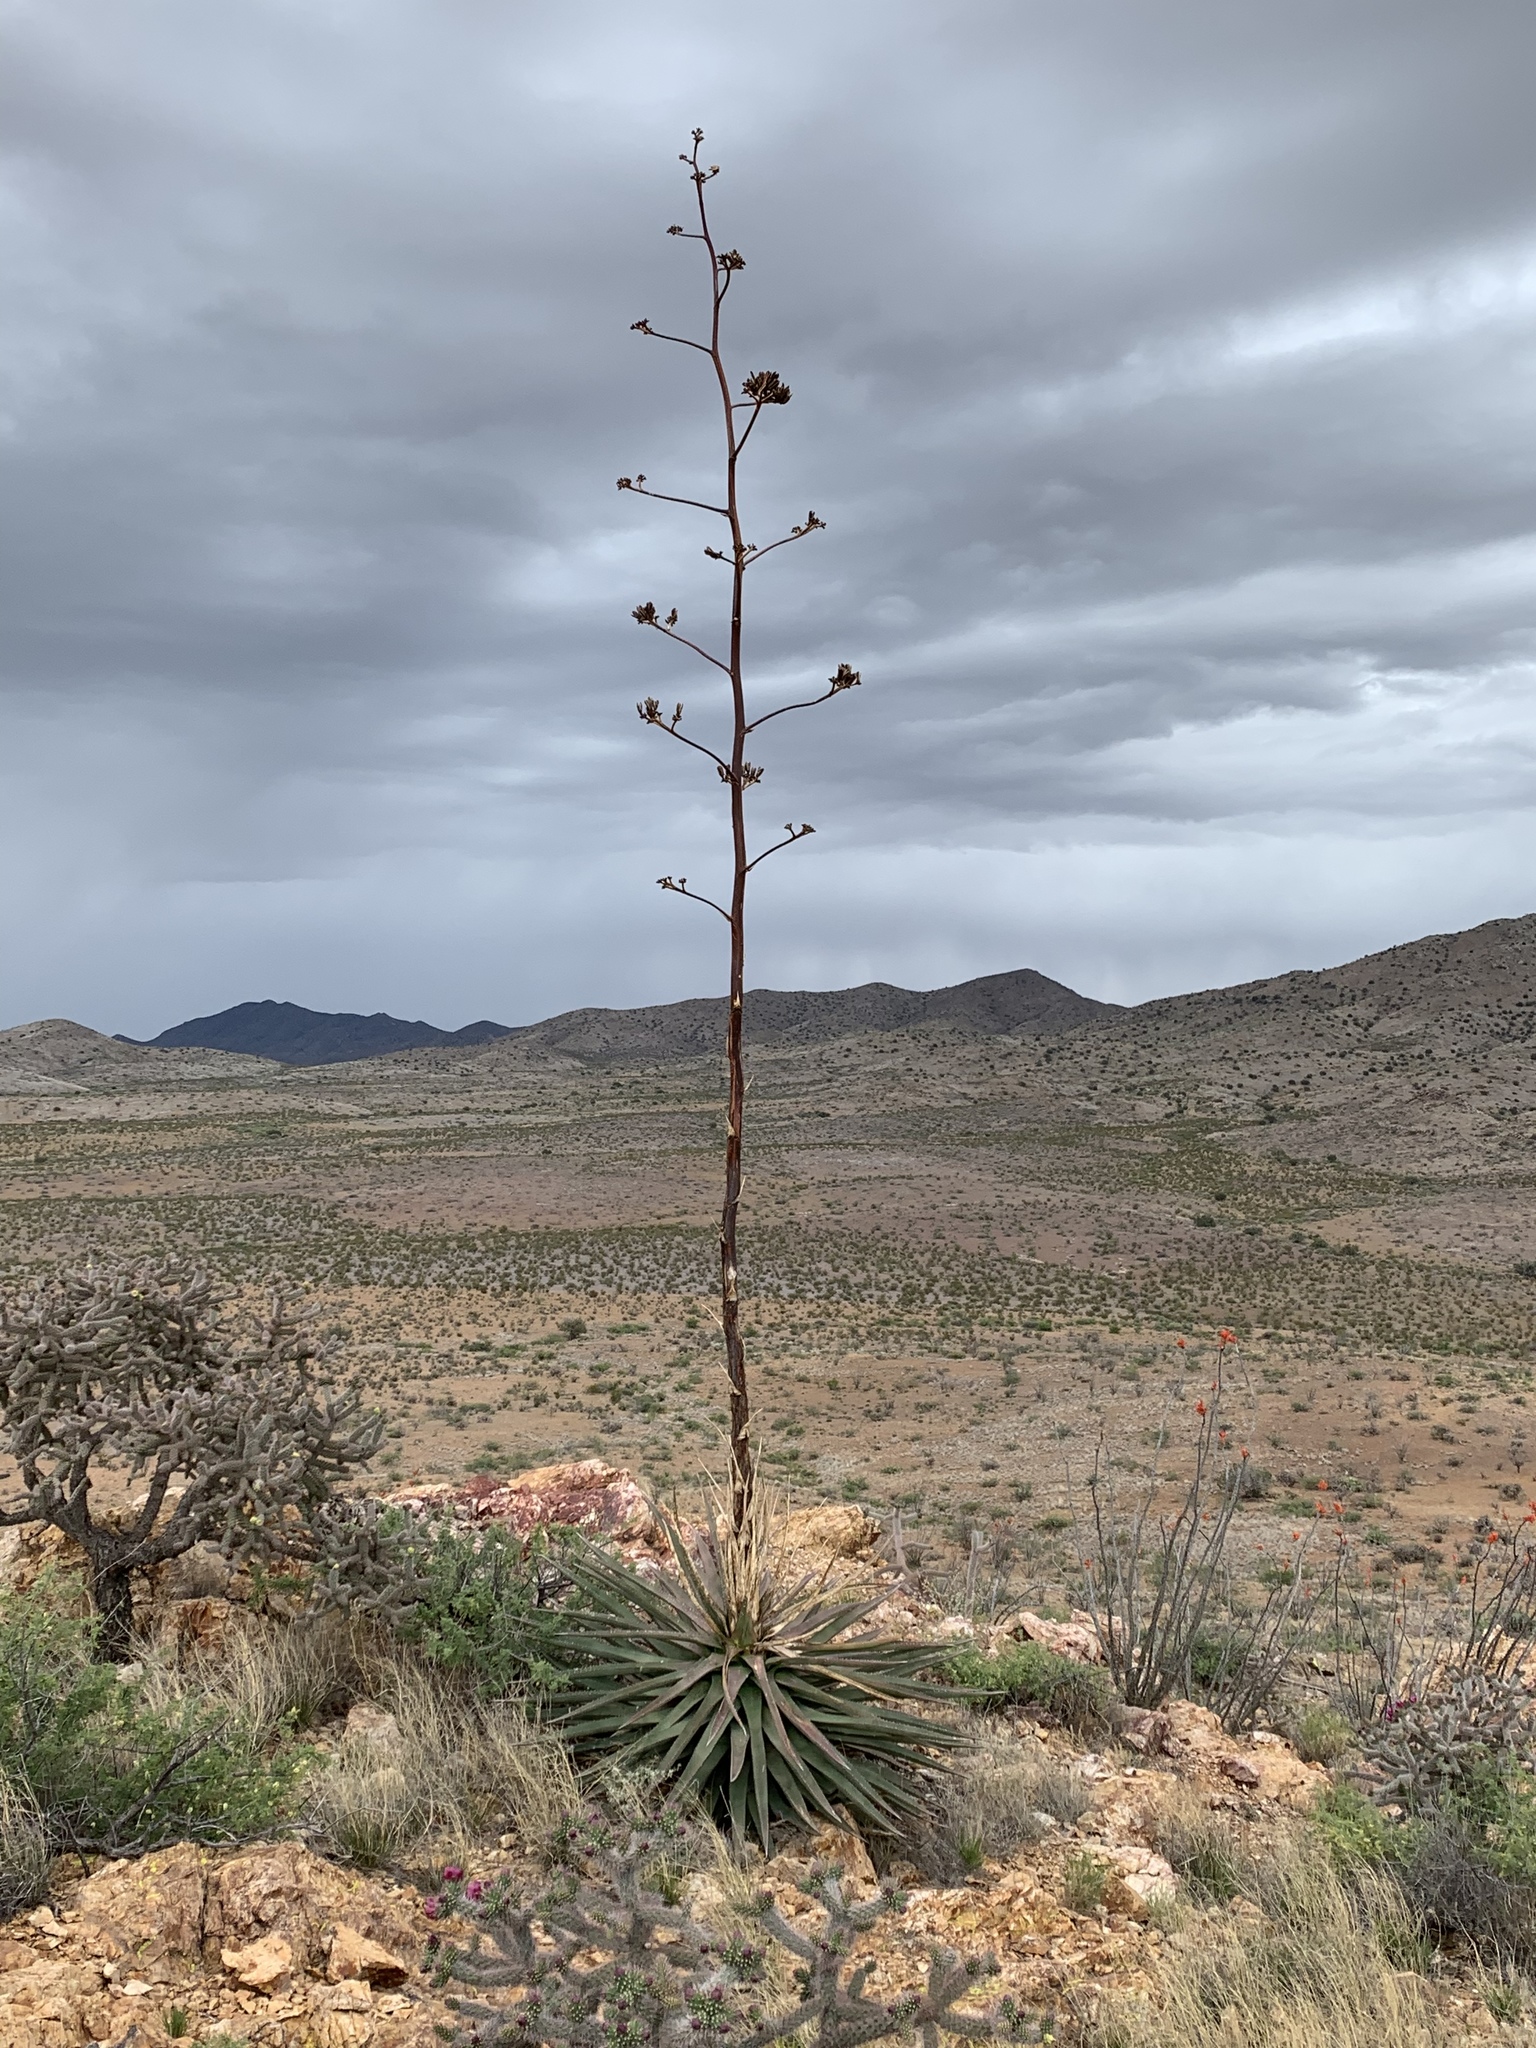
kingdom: Plantae
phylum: Tracheophyta
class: Liliopsida
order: Asparagales
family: Asparagaceae
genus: Agave
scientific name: Agave palmeri
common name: Palmer agave
